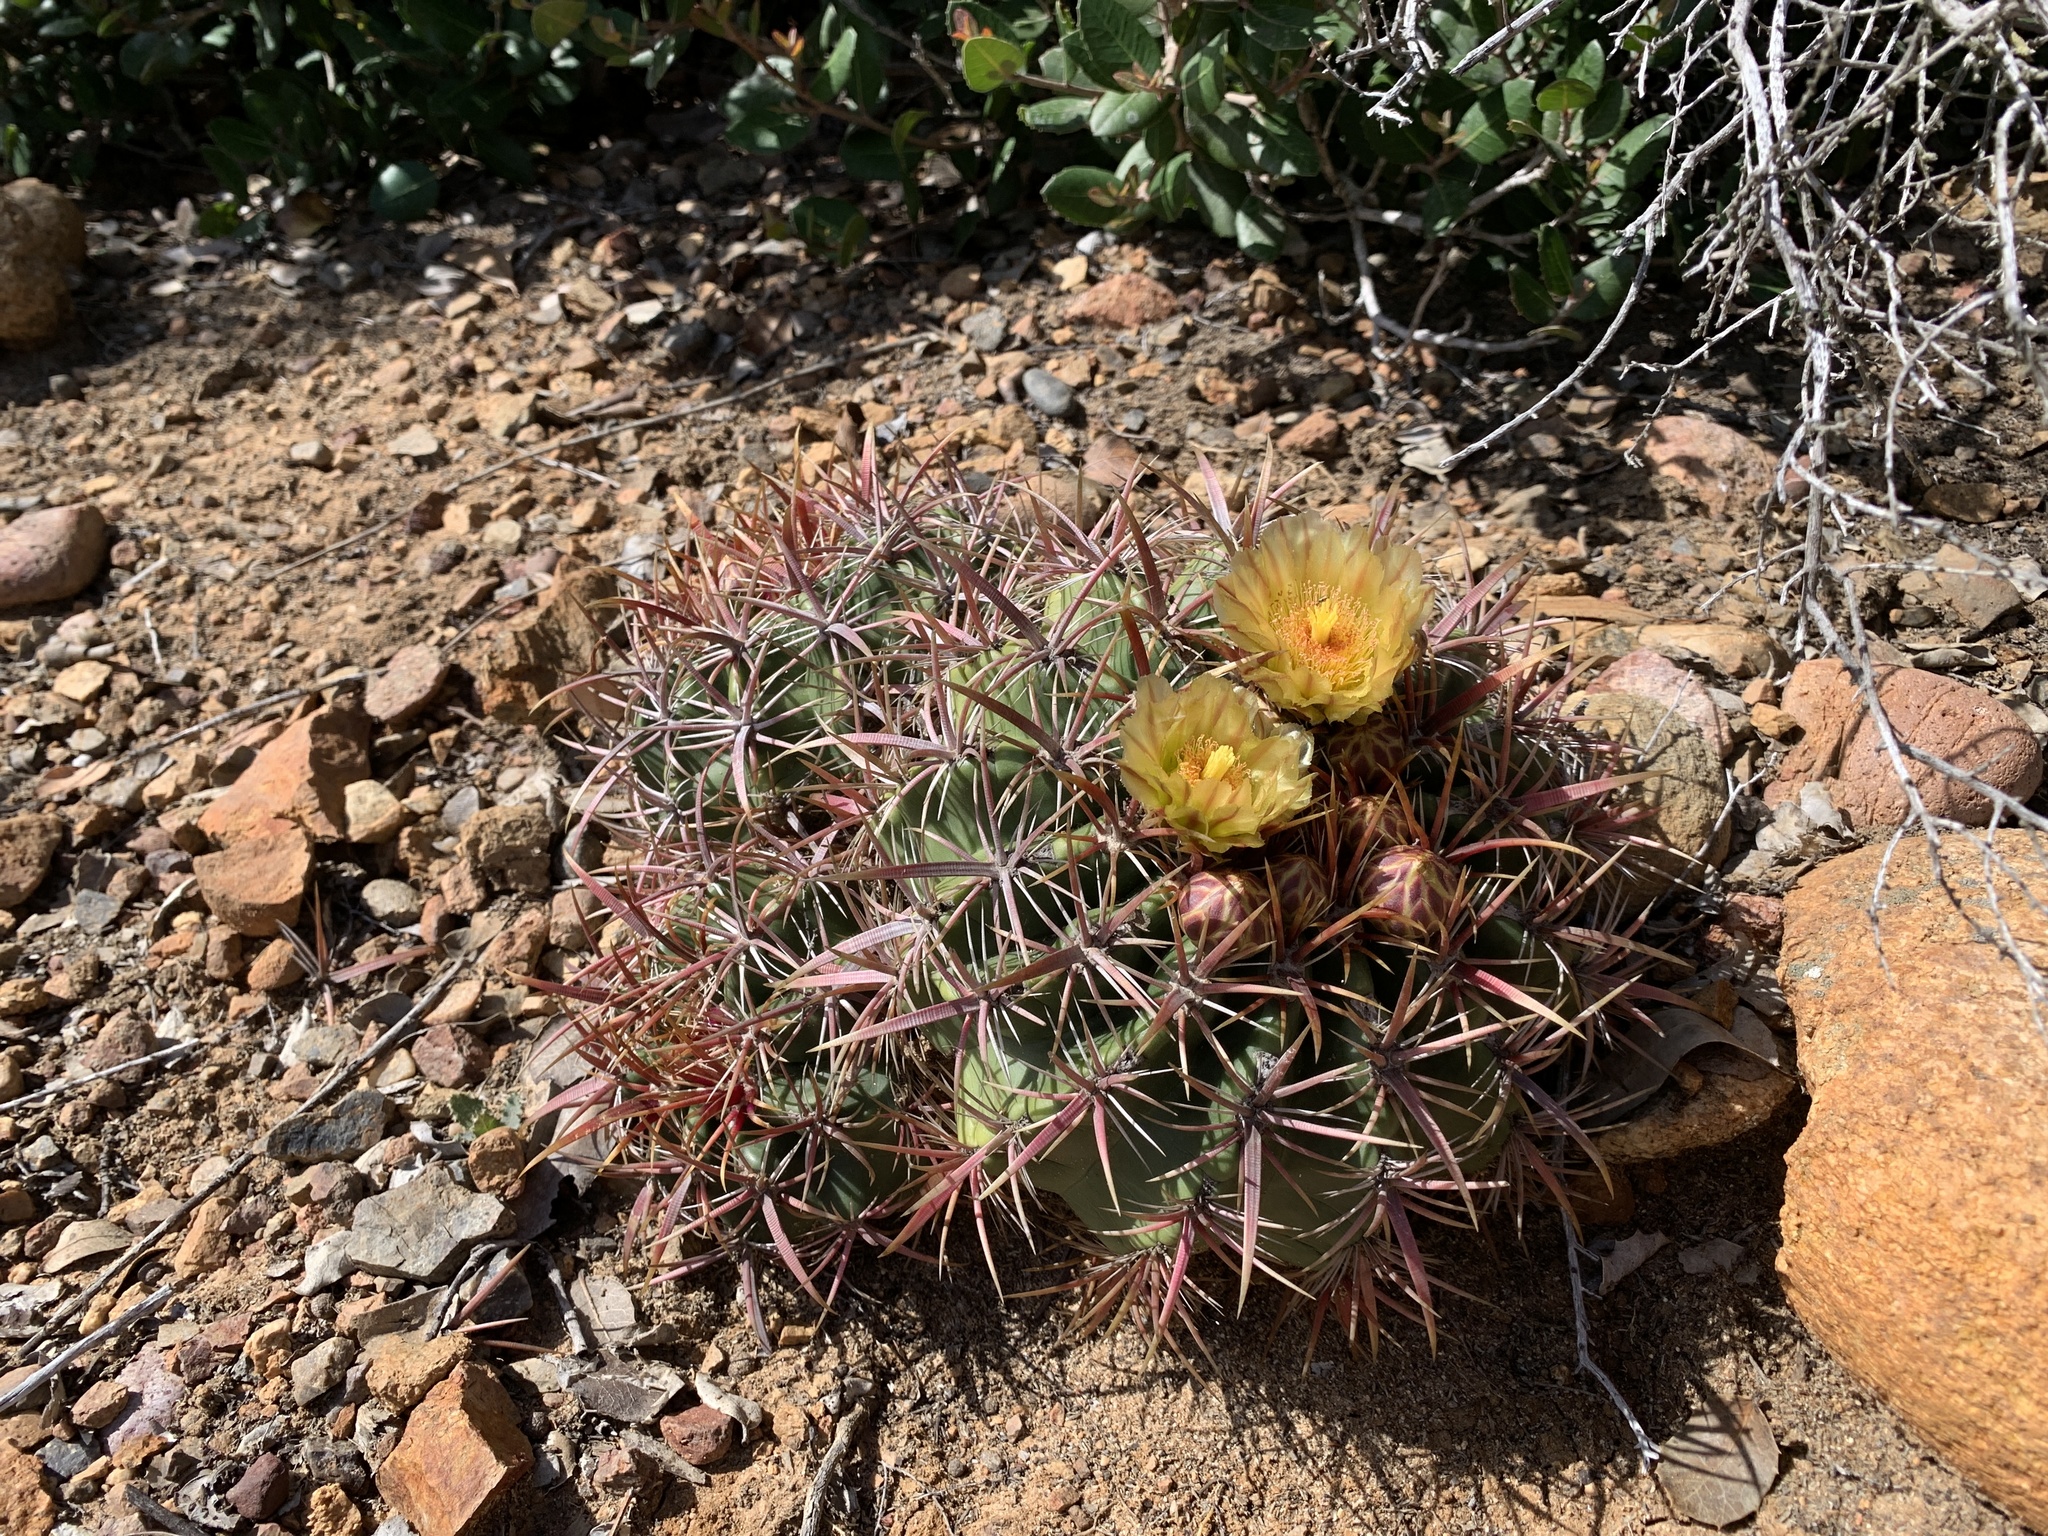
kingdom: Plantae
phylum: Tracheophyta
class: Magnoliopsida
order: Caryophyllales
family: Cactaceae
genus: Ferocactus
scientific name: Ferocactus viridescens
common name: San diego barrel cactus
